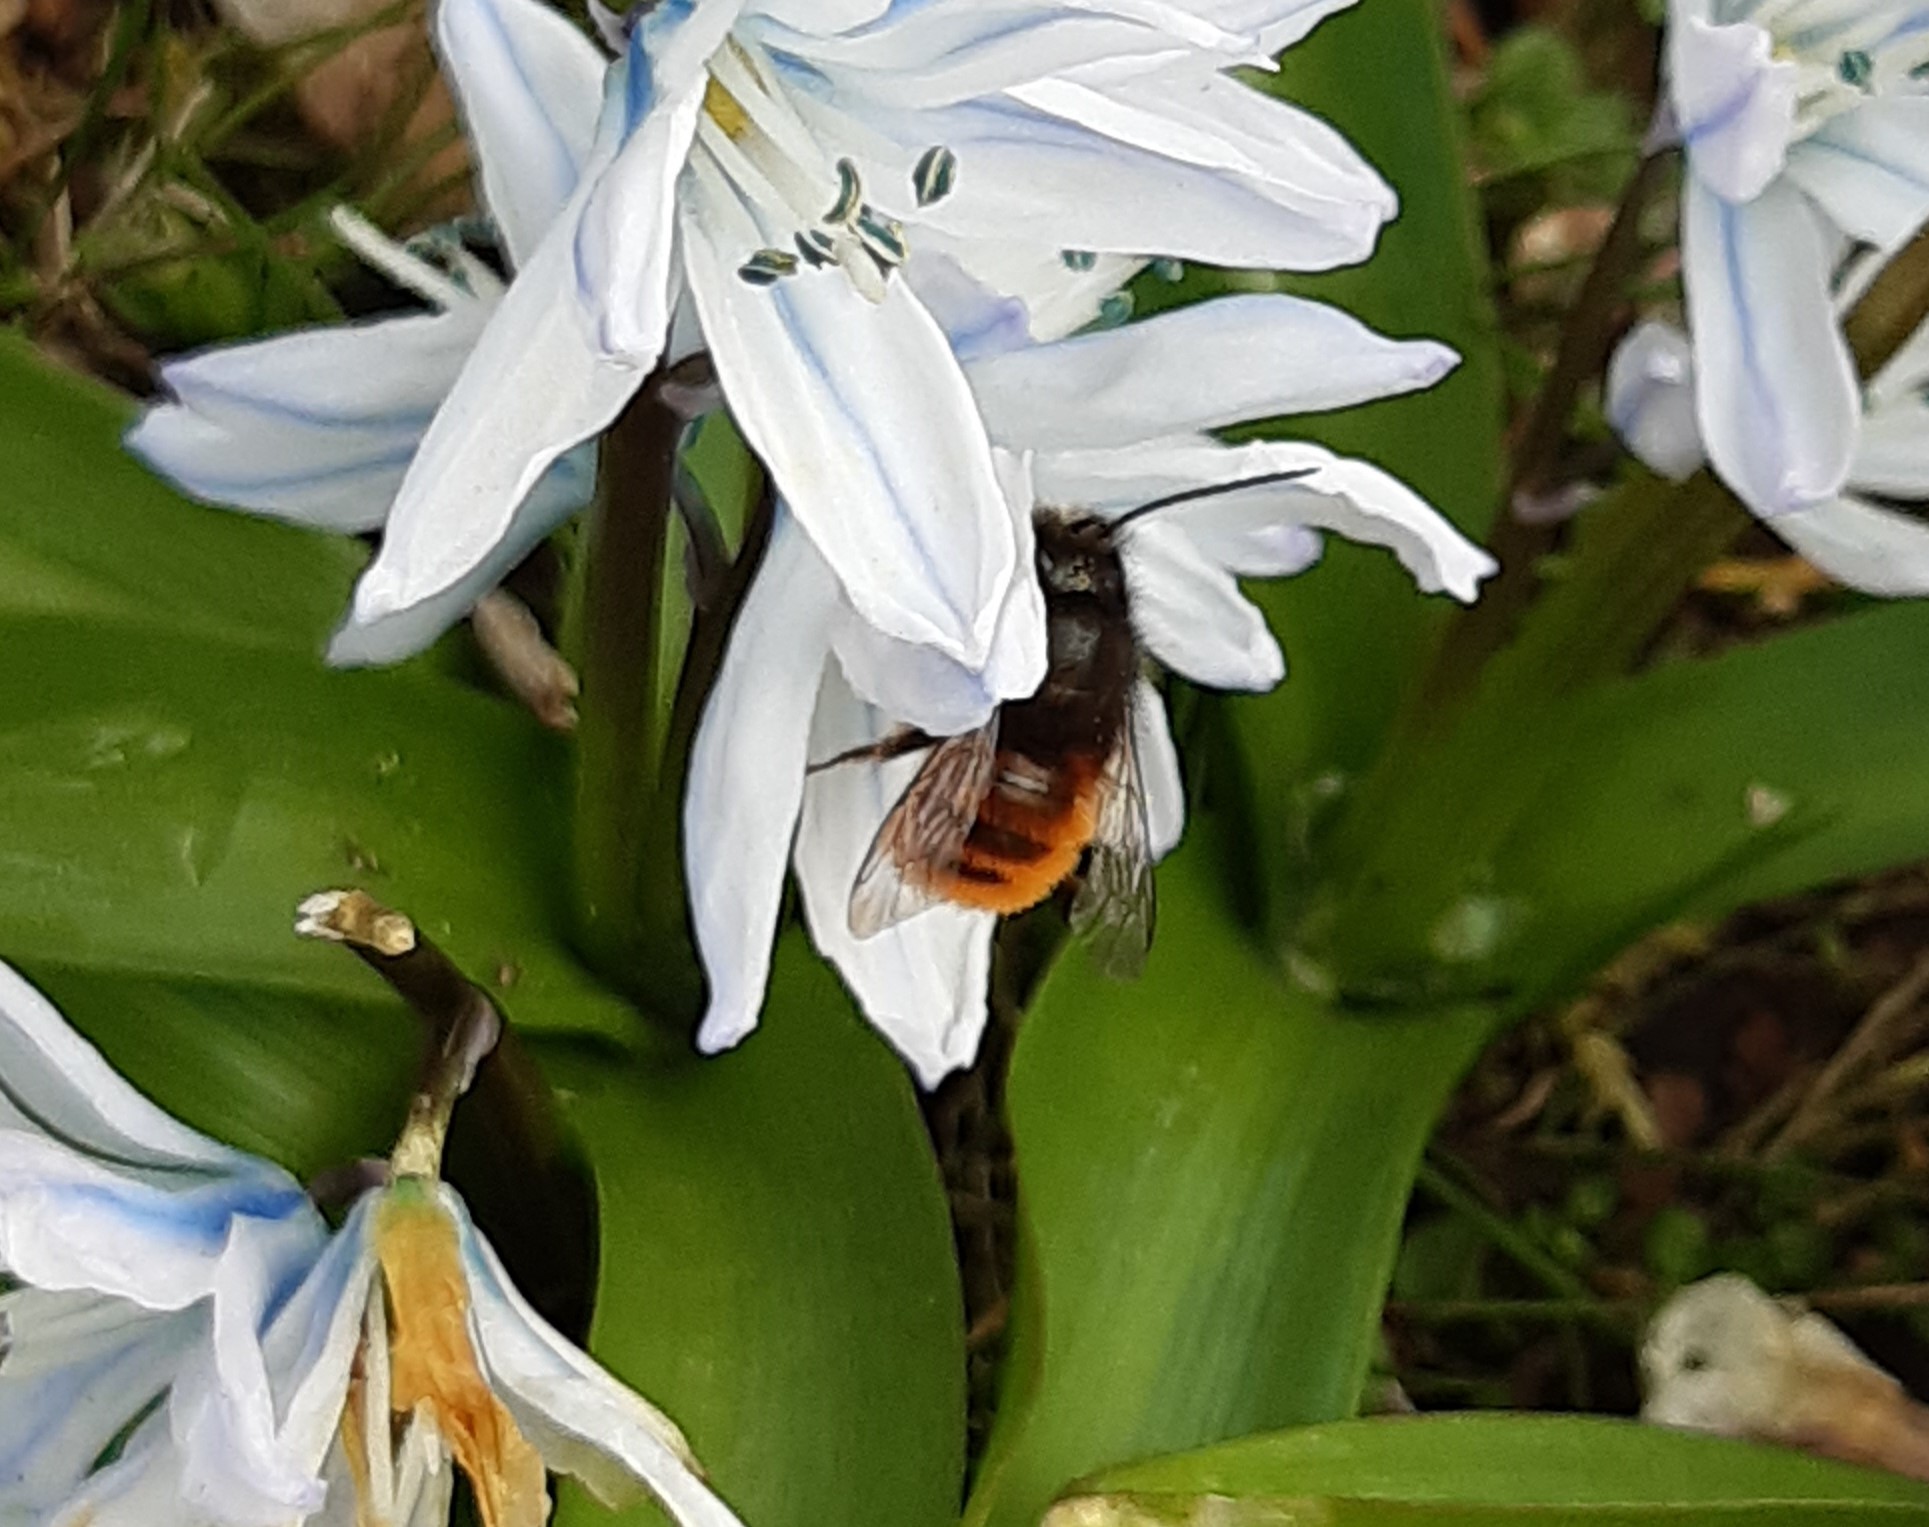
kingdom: Animalia
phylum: Arthropoda
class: Insecta
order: Hymenoptera
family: Megachilidae
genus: Osmia
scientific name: Osmia cornuta
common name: Mason bee
